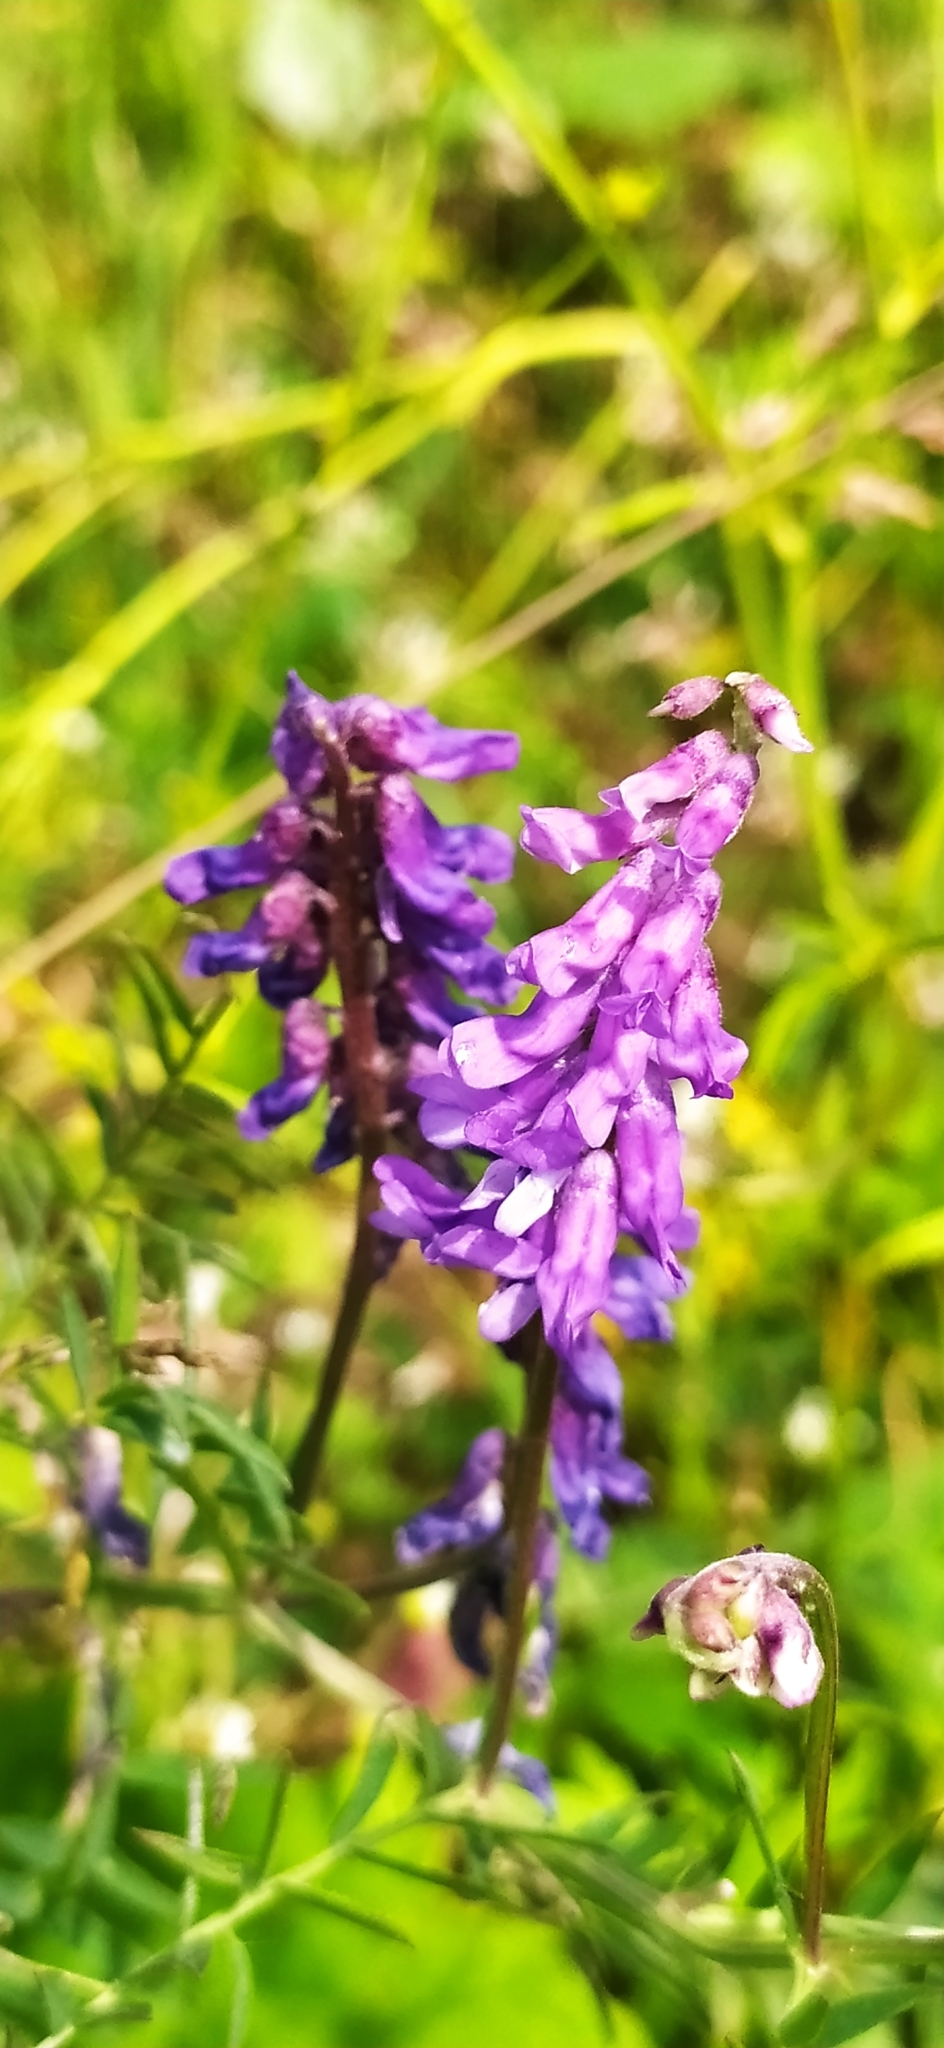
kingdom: Plantae
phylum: Tracheophyta
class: Magnoliopsida
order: Fabales
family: Fabaceae
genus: Vicia
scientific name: Vicia cracca
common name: Bird vetch
